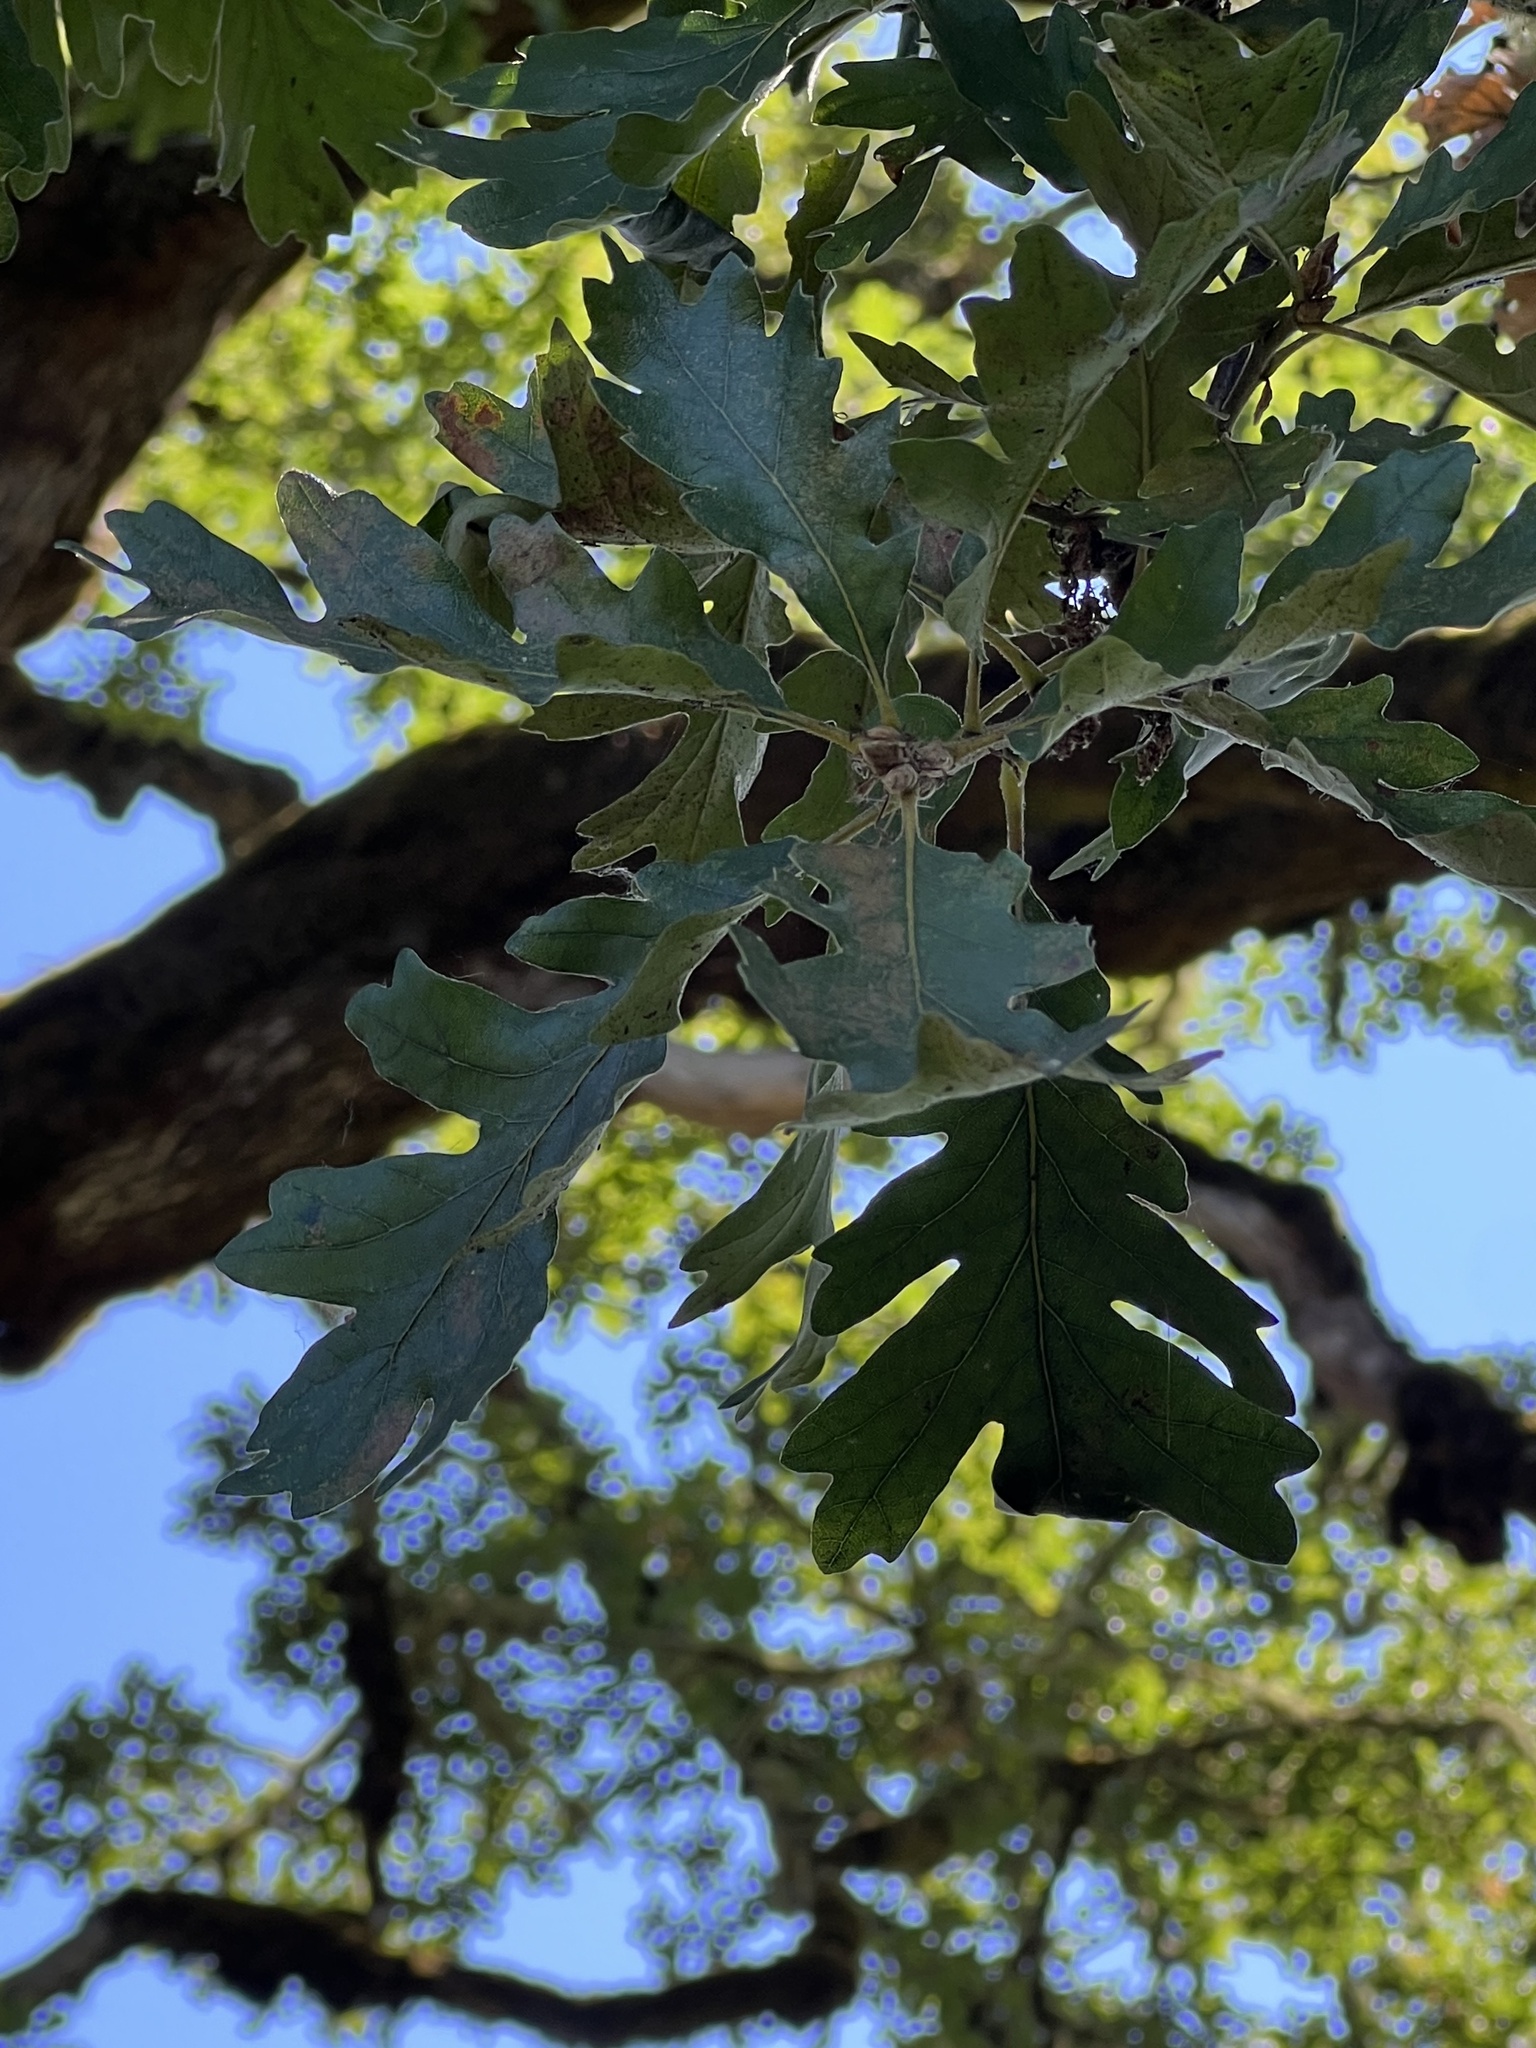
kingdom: Plantae
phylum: Tracheophyta
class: Magnoliopsida
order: Fagales
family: Fagaceae
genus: Quercus
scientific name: Quercus garryana
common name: Garry oak
